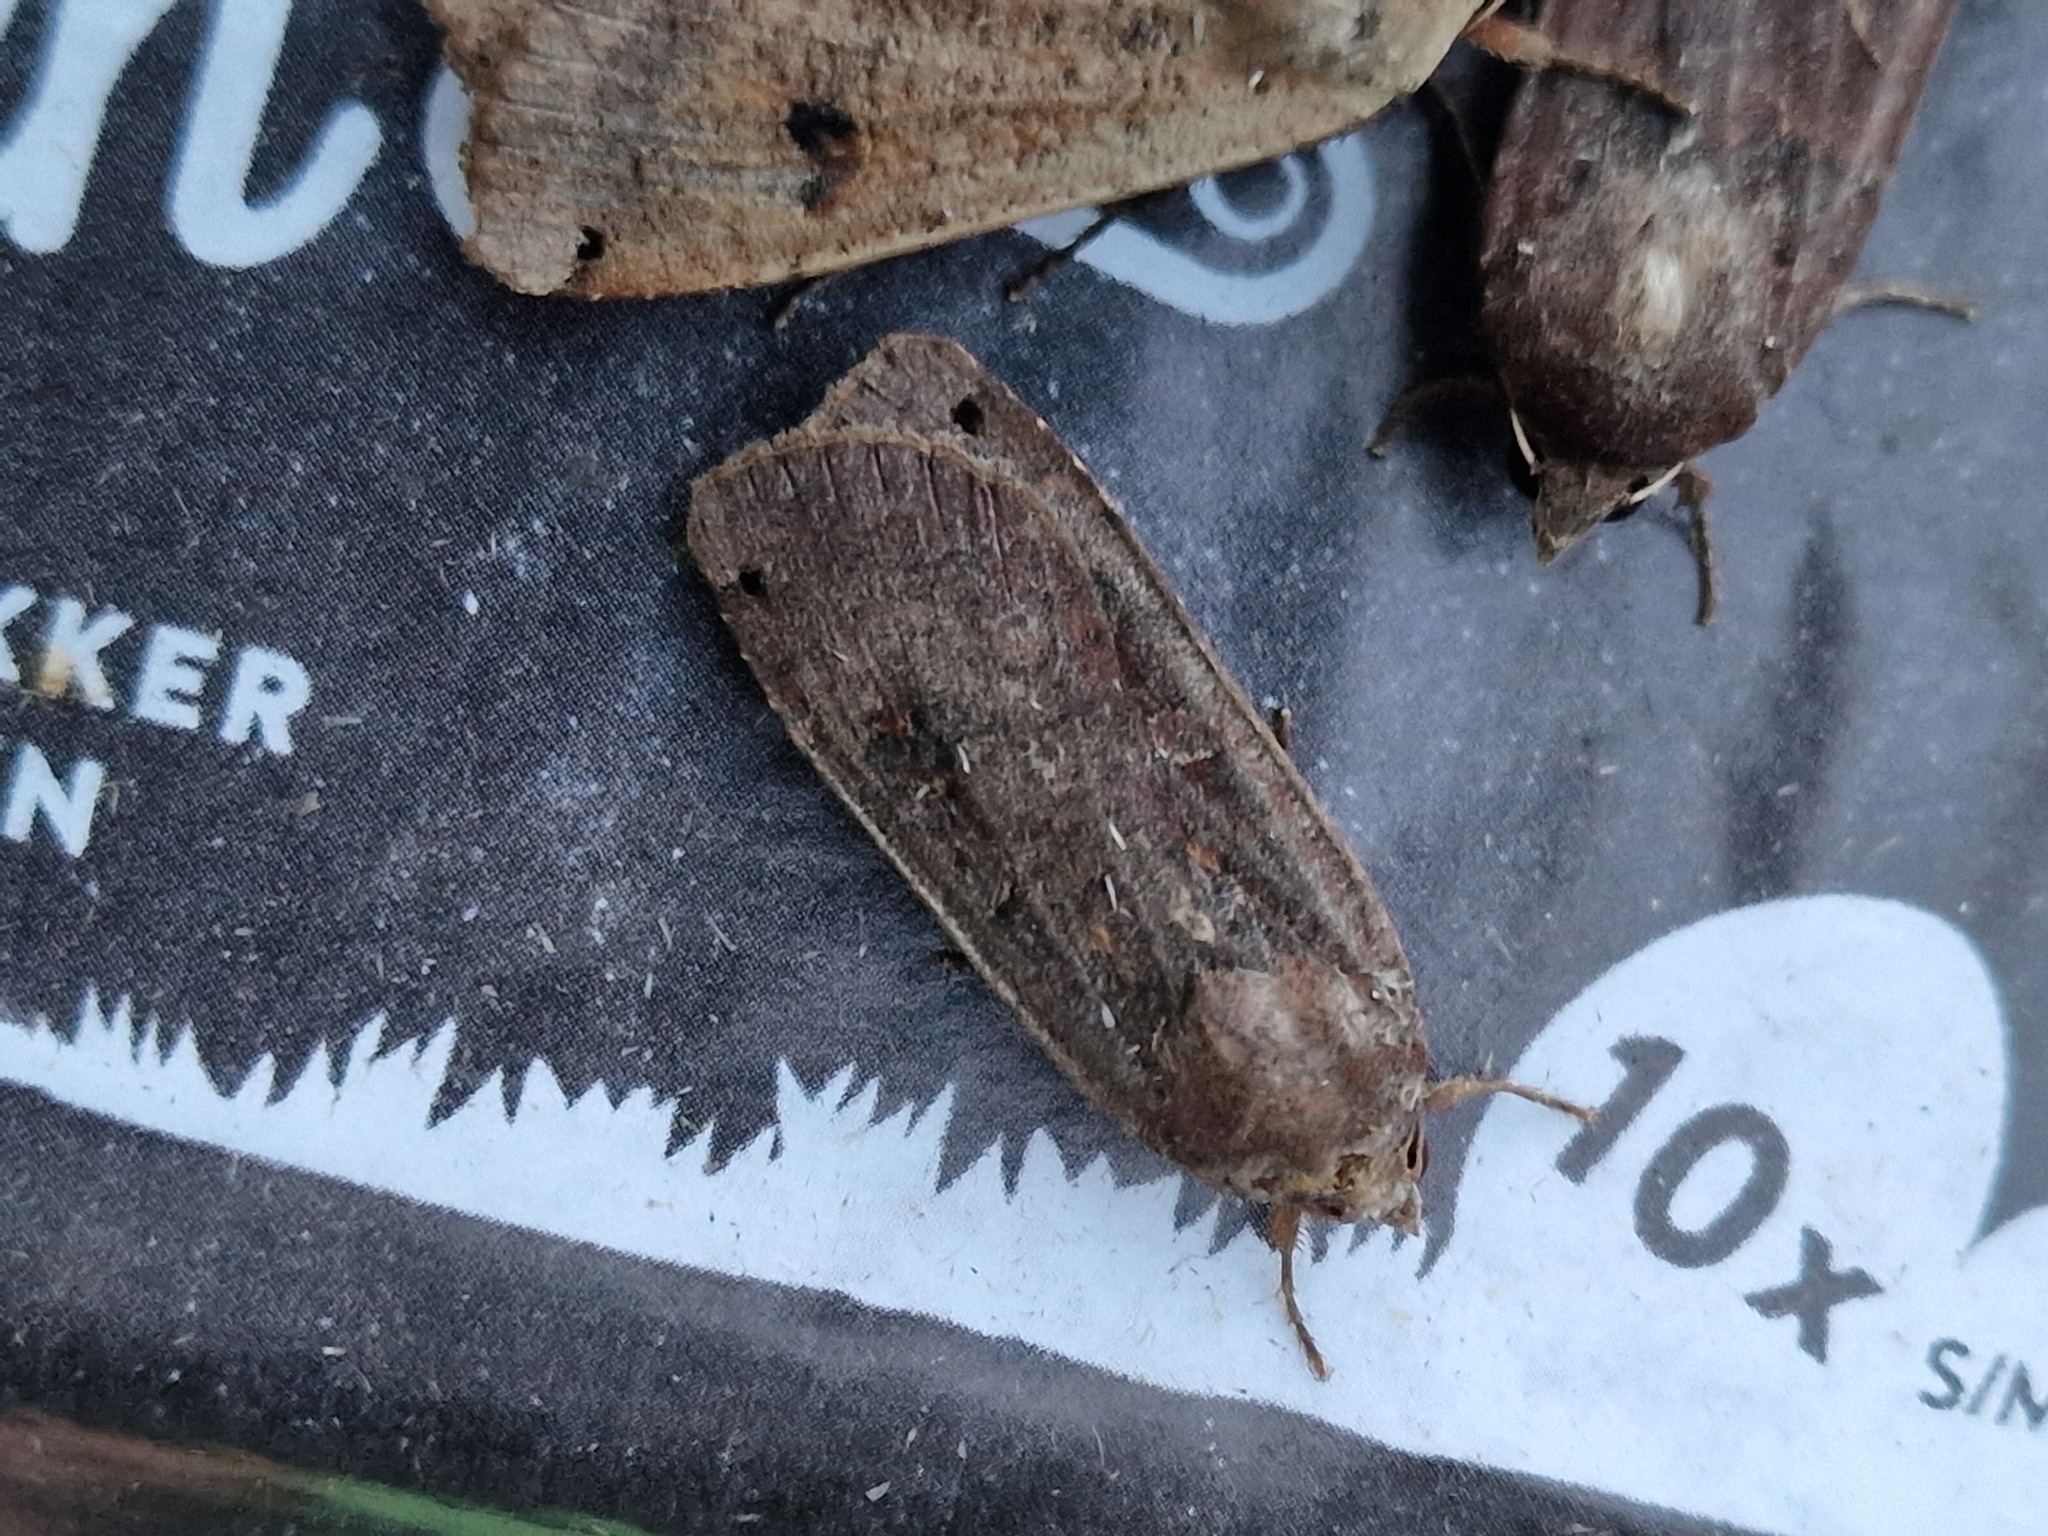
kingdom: Animalia
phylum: Arthropoda
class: Insecta
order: Lepidoptera
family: Noctuidae
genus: Noctua
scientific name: Noctua pronuba
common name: Large yellow underwing
